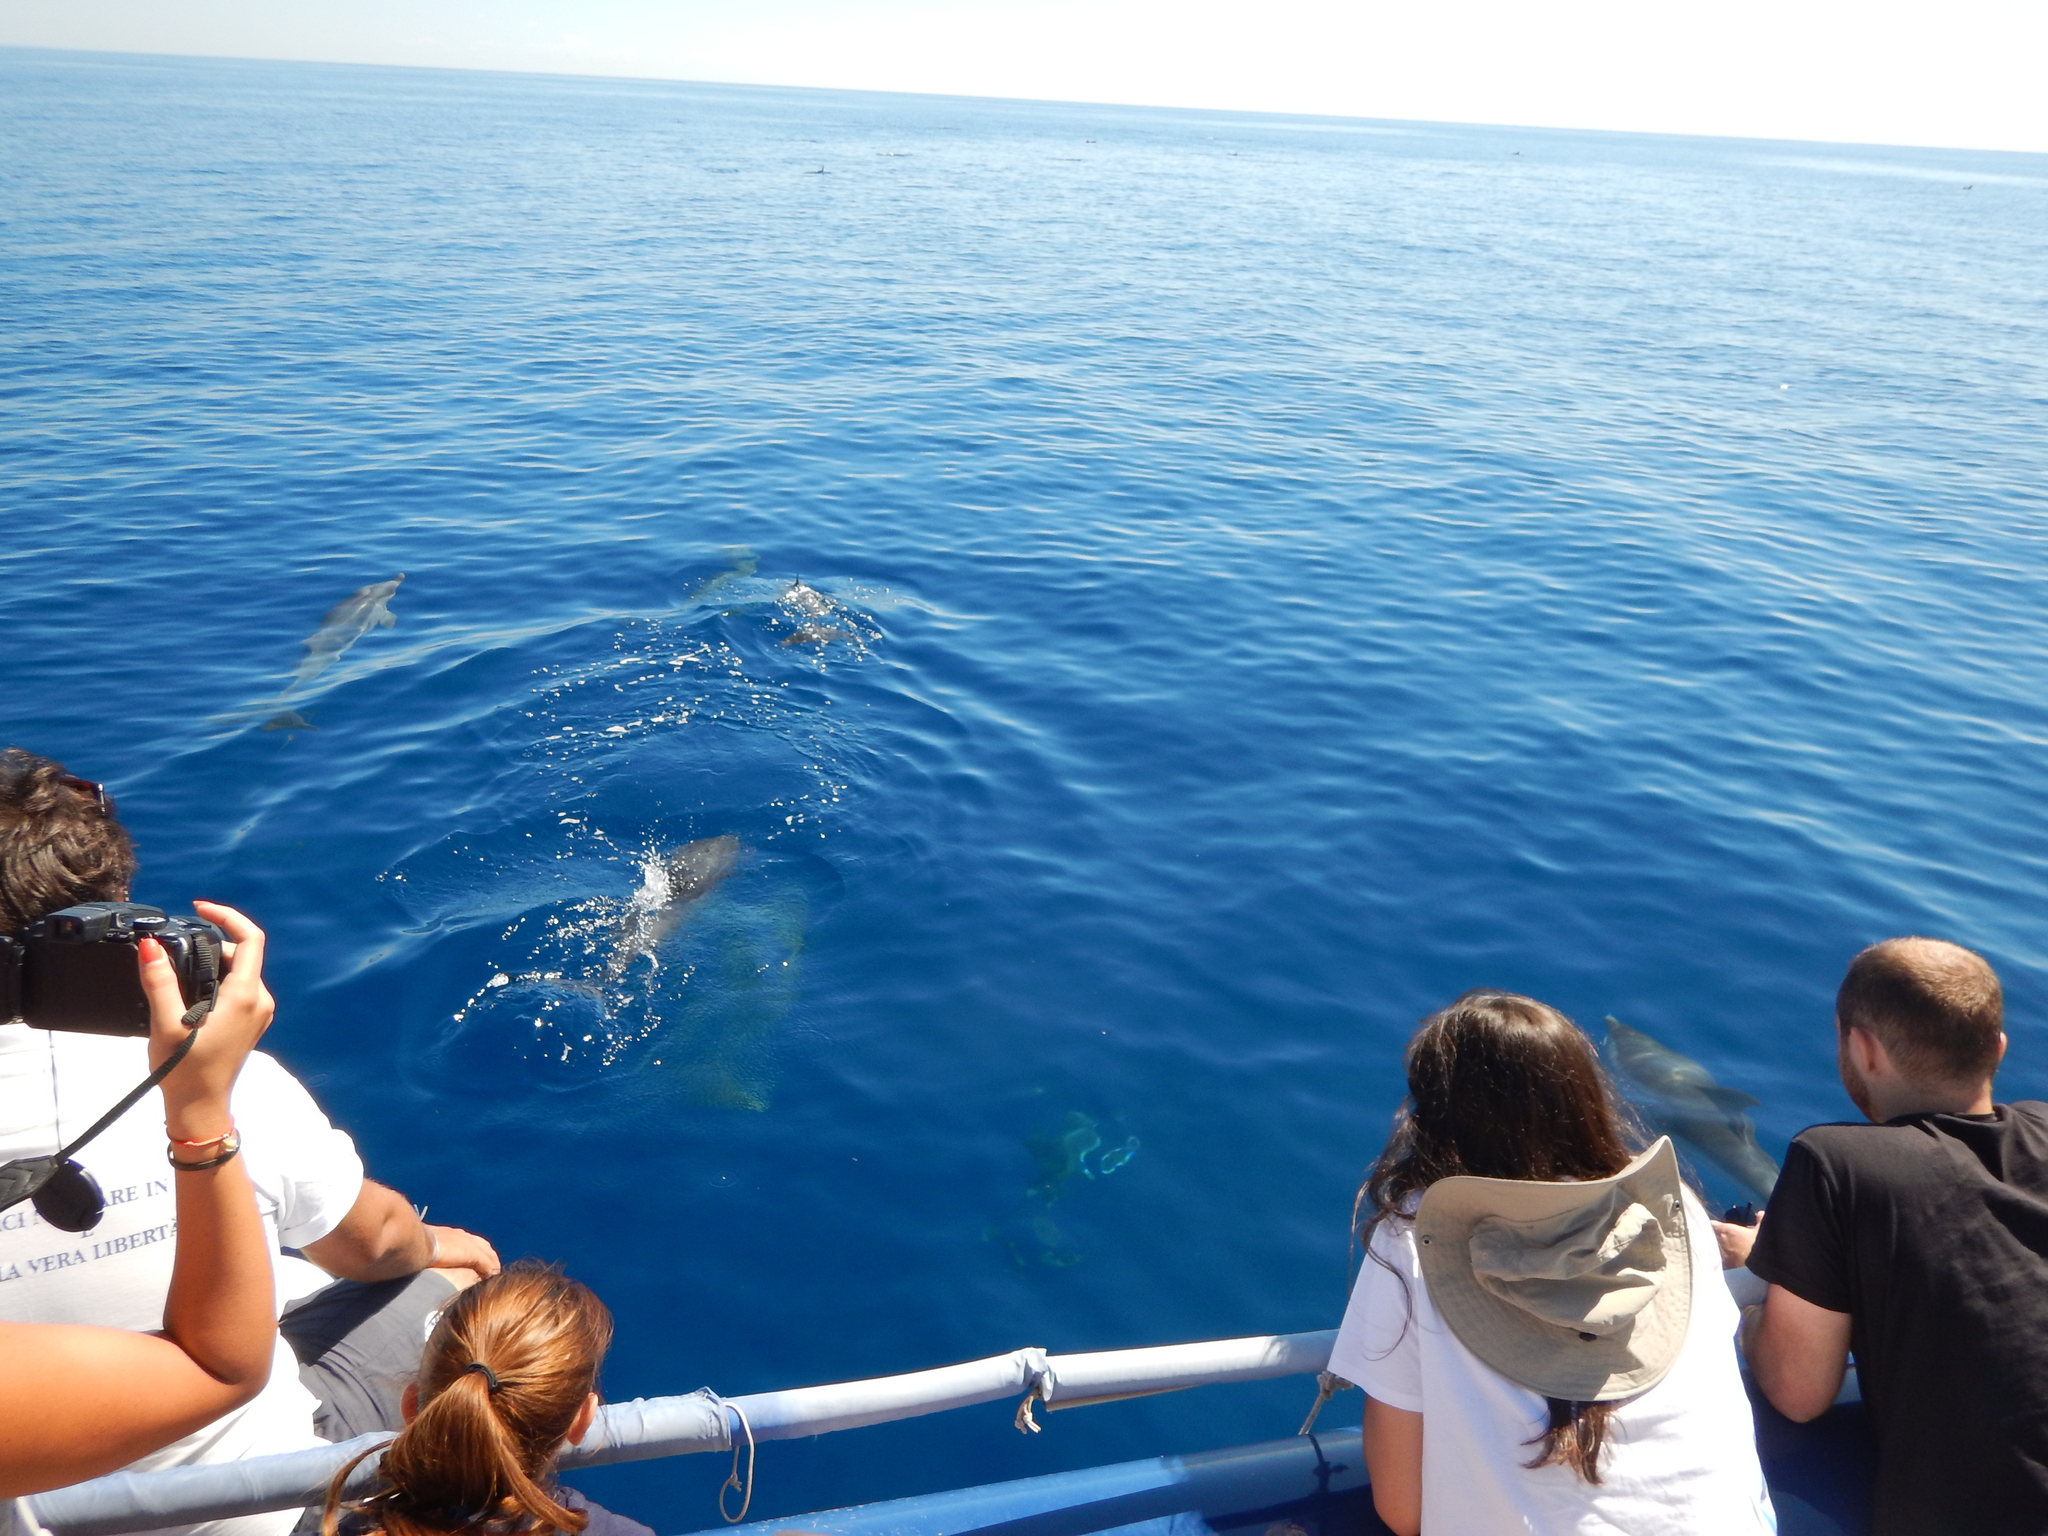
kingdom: Animalia
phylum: Chordata
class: Mammalia
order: Cetacea
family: Delphinidae
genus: Stenella
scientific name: Stenella coeruleoalba
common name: Striped dolphin
